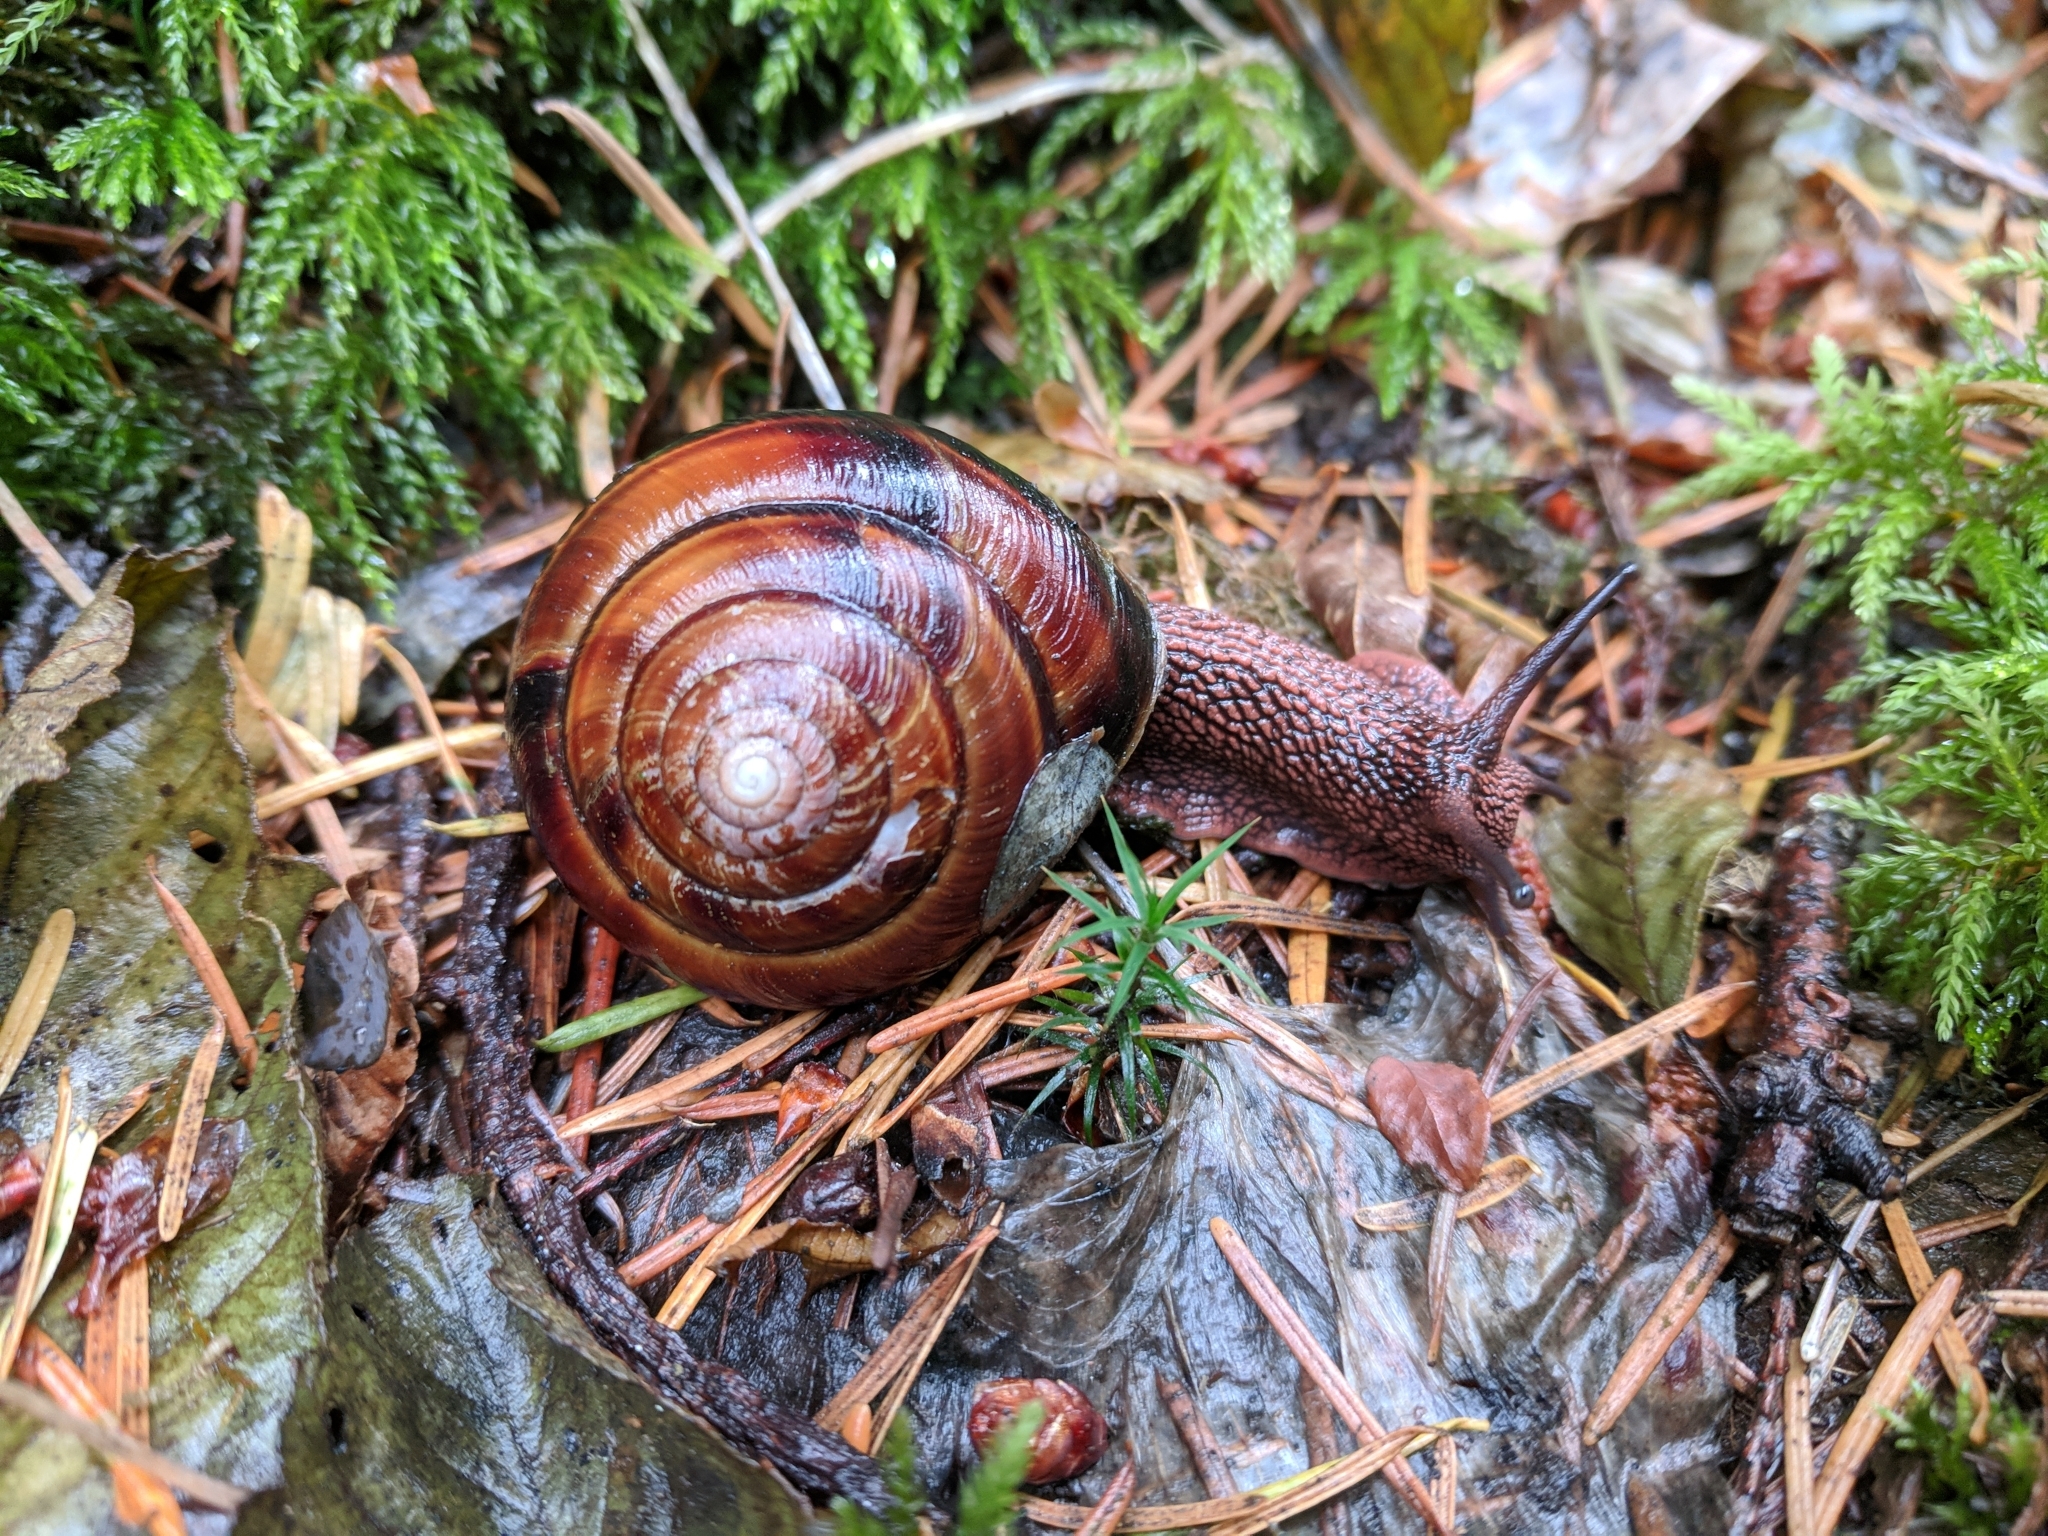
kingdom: Animalia
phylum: Mollusca
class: Gastropoda
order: Stylommatophora
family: Xanthonychidae
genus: Monadenia
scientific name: Monadenia fidelis
